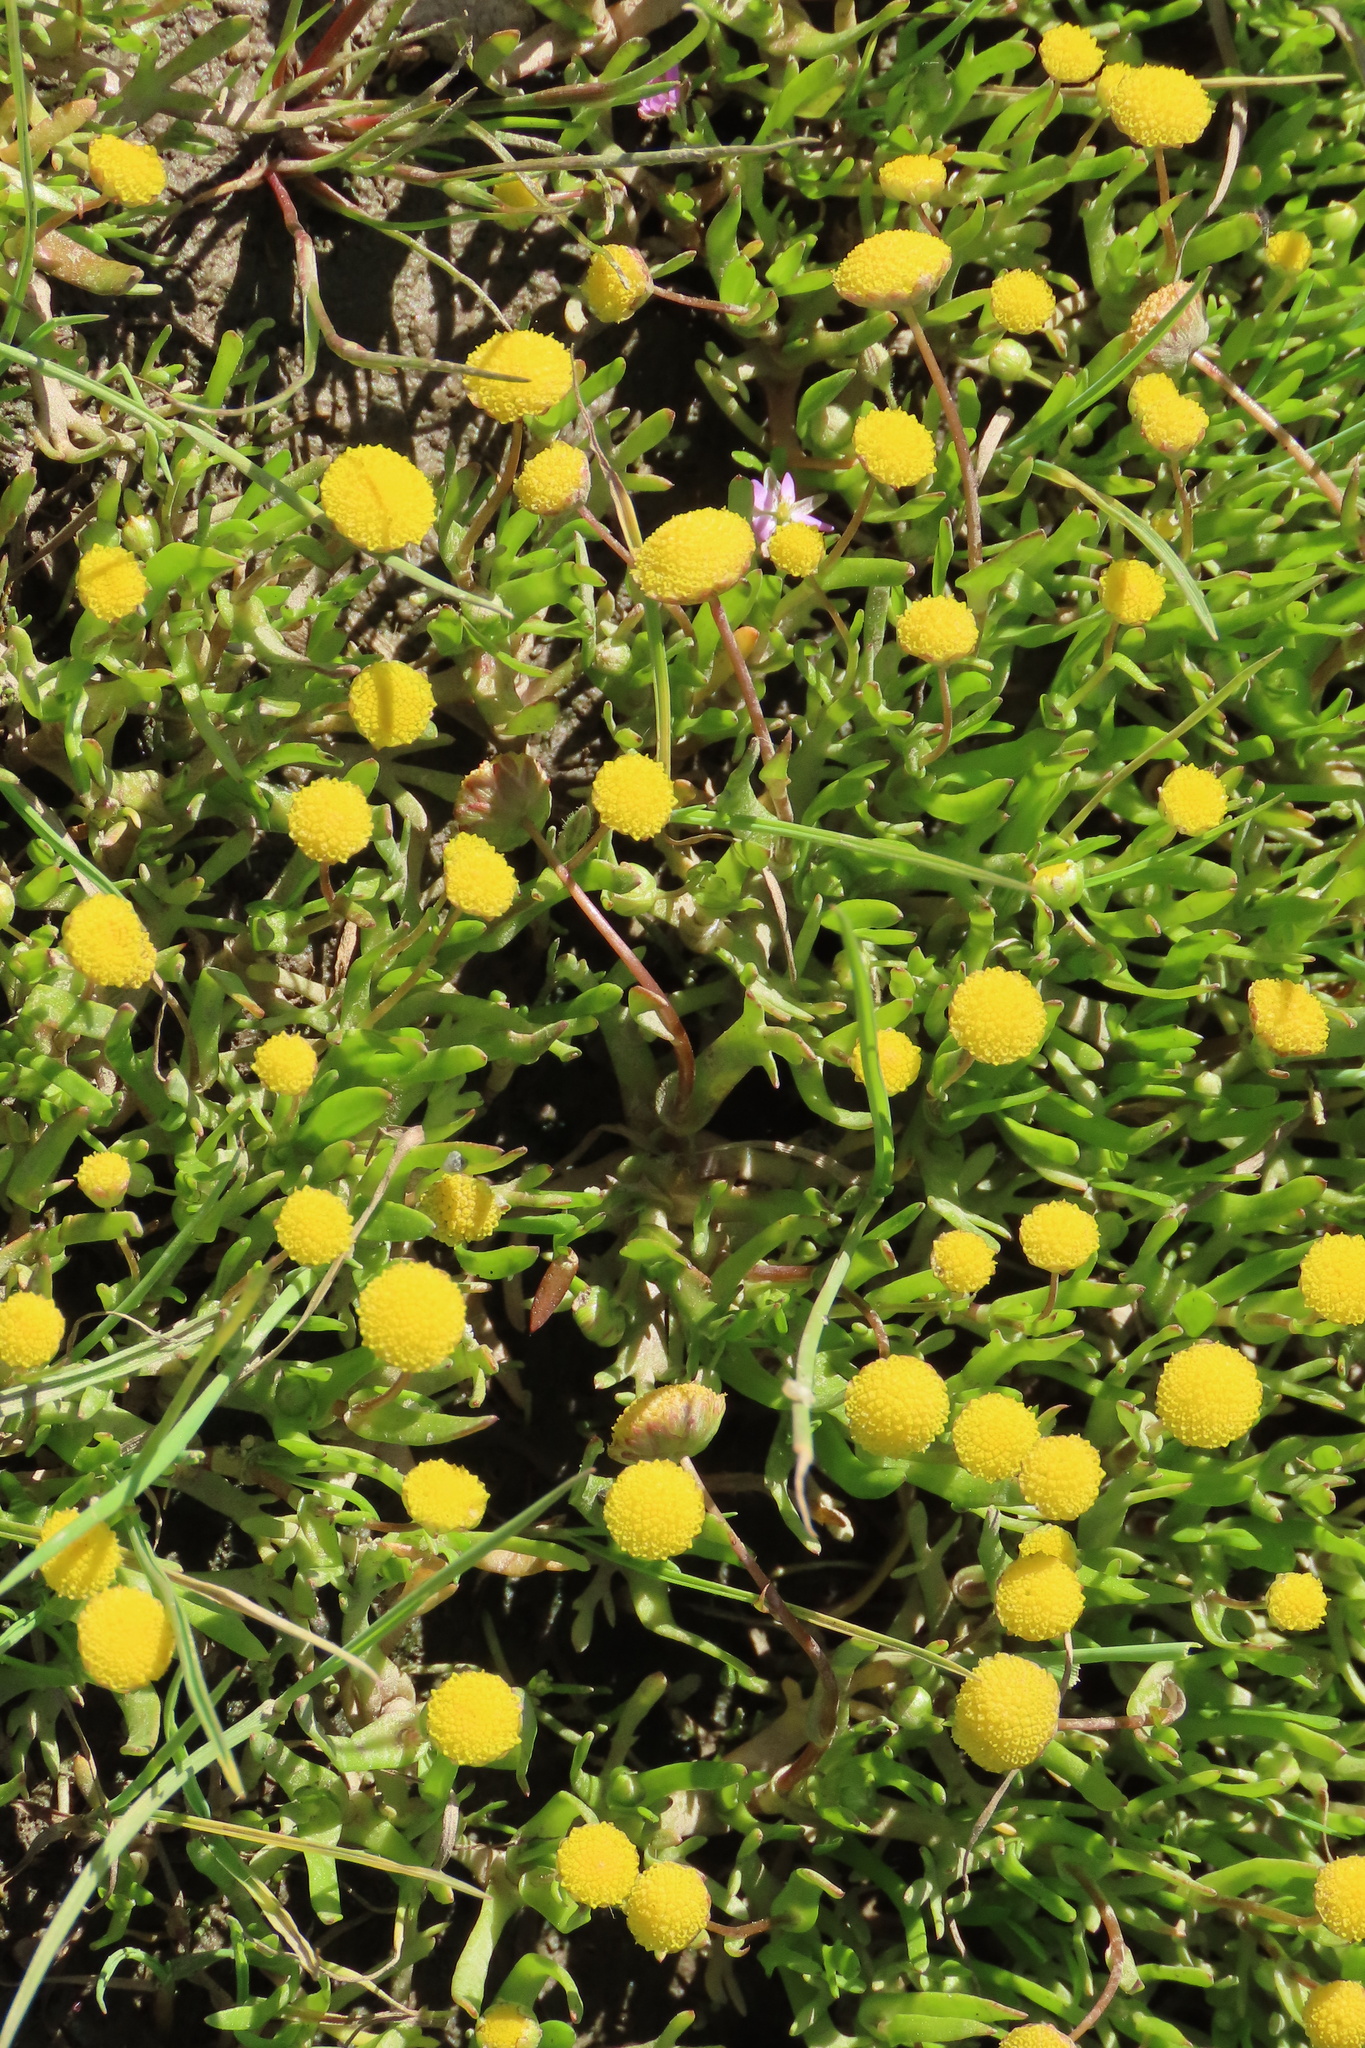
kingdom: Plantae
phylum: Tracheophyta
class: Magnoliopsida
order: Asterales
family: Asteraceae
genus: Cotula
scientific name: Cotula coronopifolia
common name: Buttonweed
